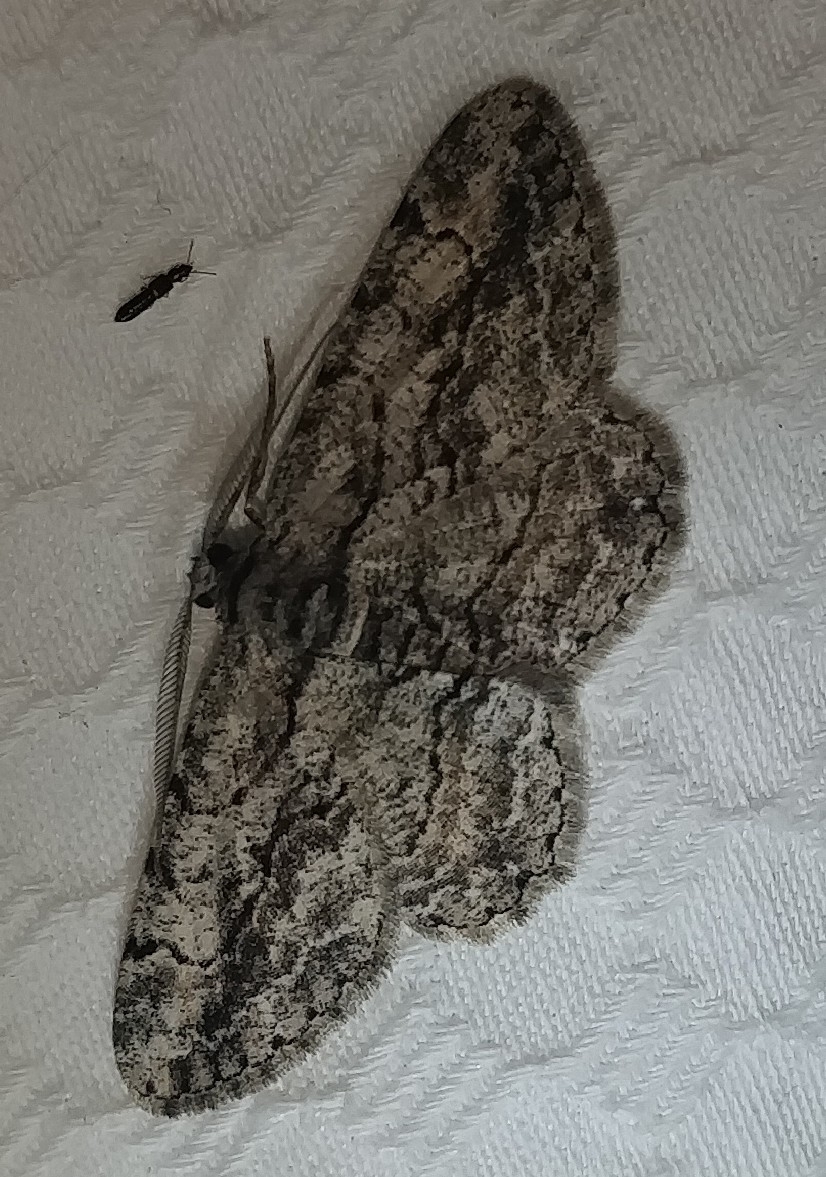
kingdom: Animalia
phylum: Arthropoda
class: Insecta
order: Lepidoptera
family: Geometridae
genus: Anavitrinella
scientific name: Anavitrinella pampinaria
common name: Common gray
